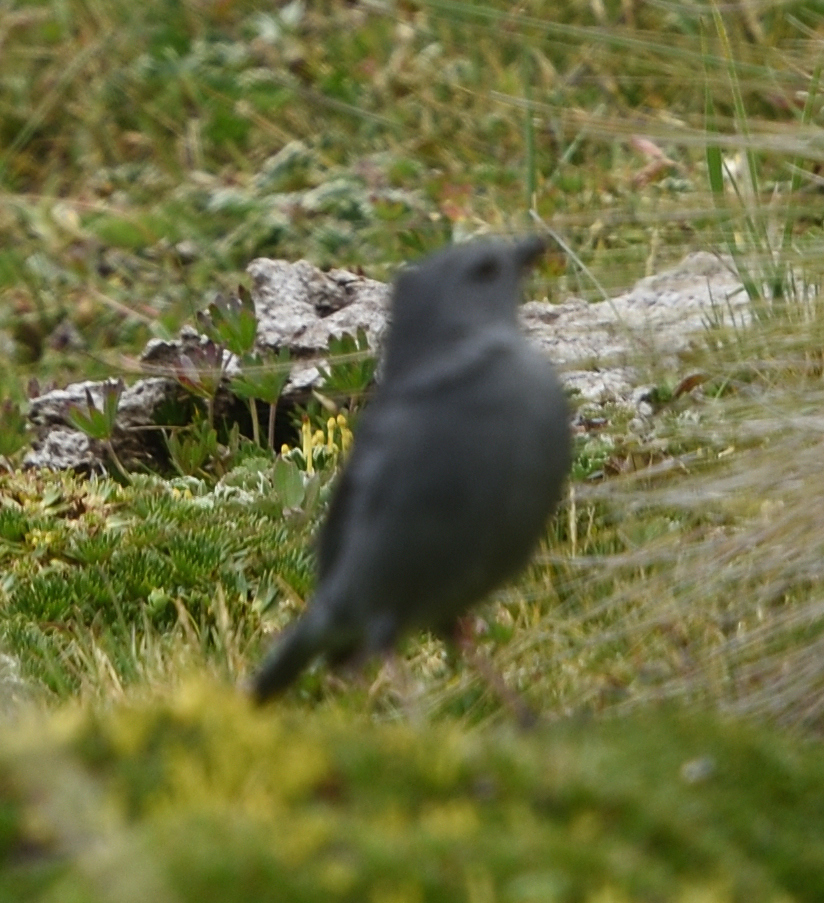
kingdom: Animalia
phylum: Chordata
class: Aves
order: Passeriformes
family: Thraupidae
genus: Geospizopsis
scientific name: Geospizopsis unicolor
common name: Plumbeous sierra-finch
